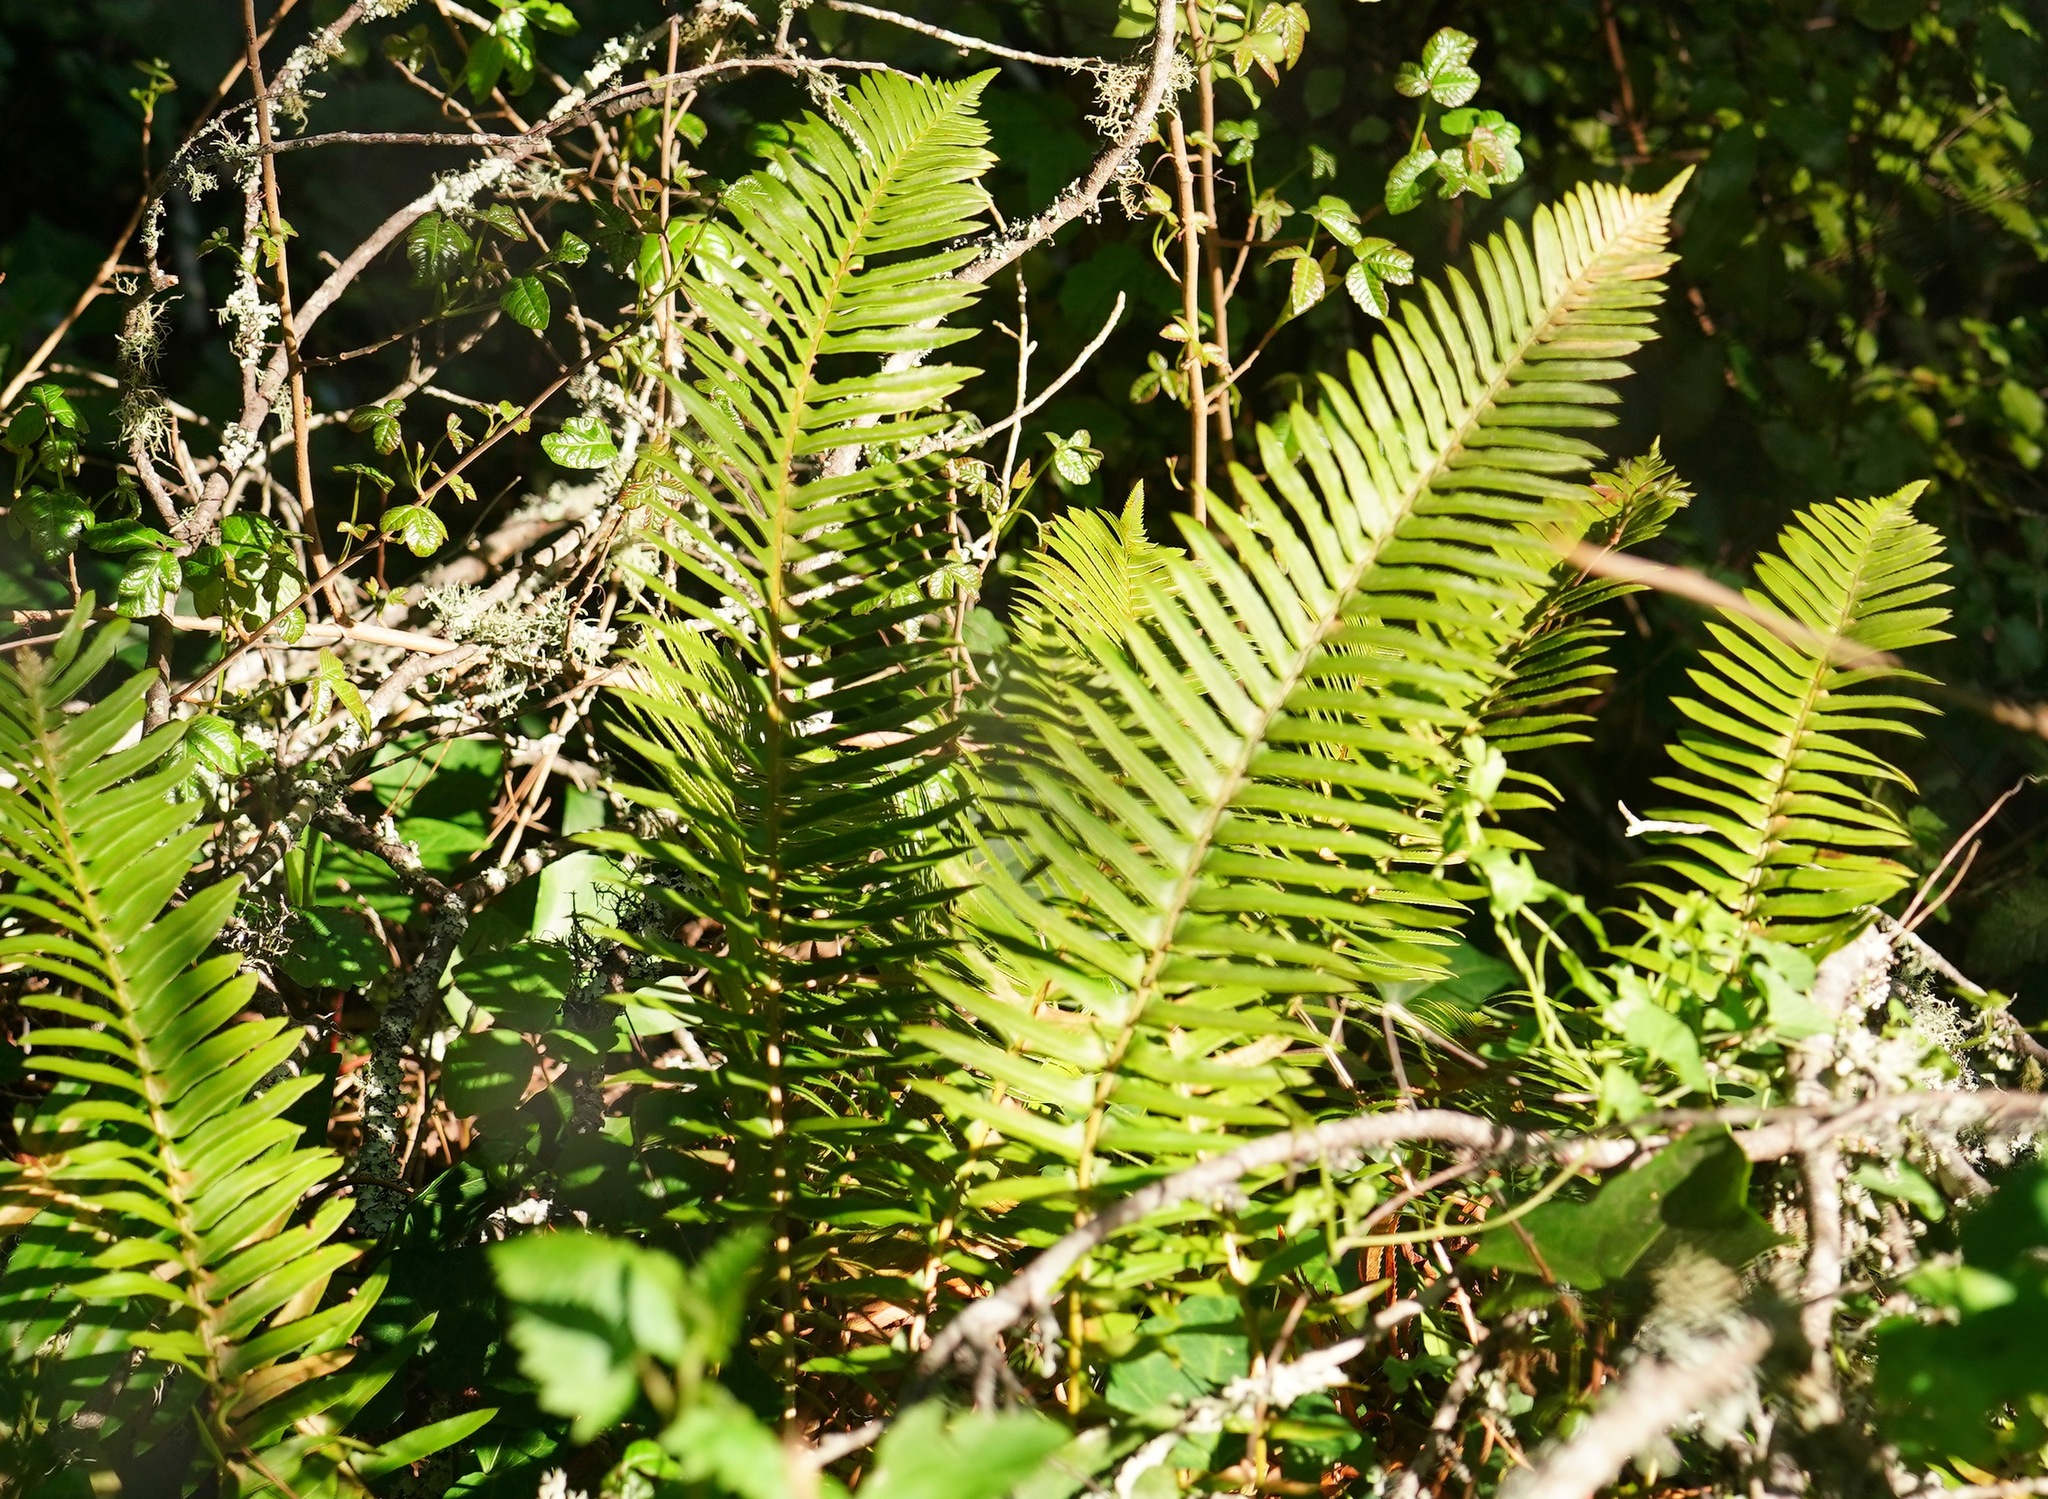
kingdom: Plantae
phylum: Tracheophyta
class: Polypodiopsida
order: Polypodiales
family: Dryopteridaceae
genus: Polystichum
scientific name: Polystichum munitum
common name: Western sword-fern
